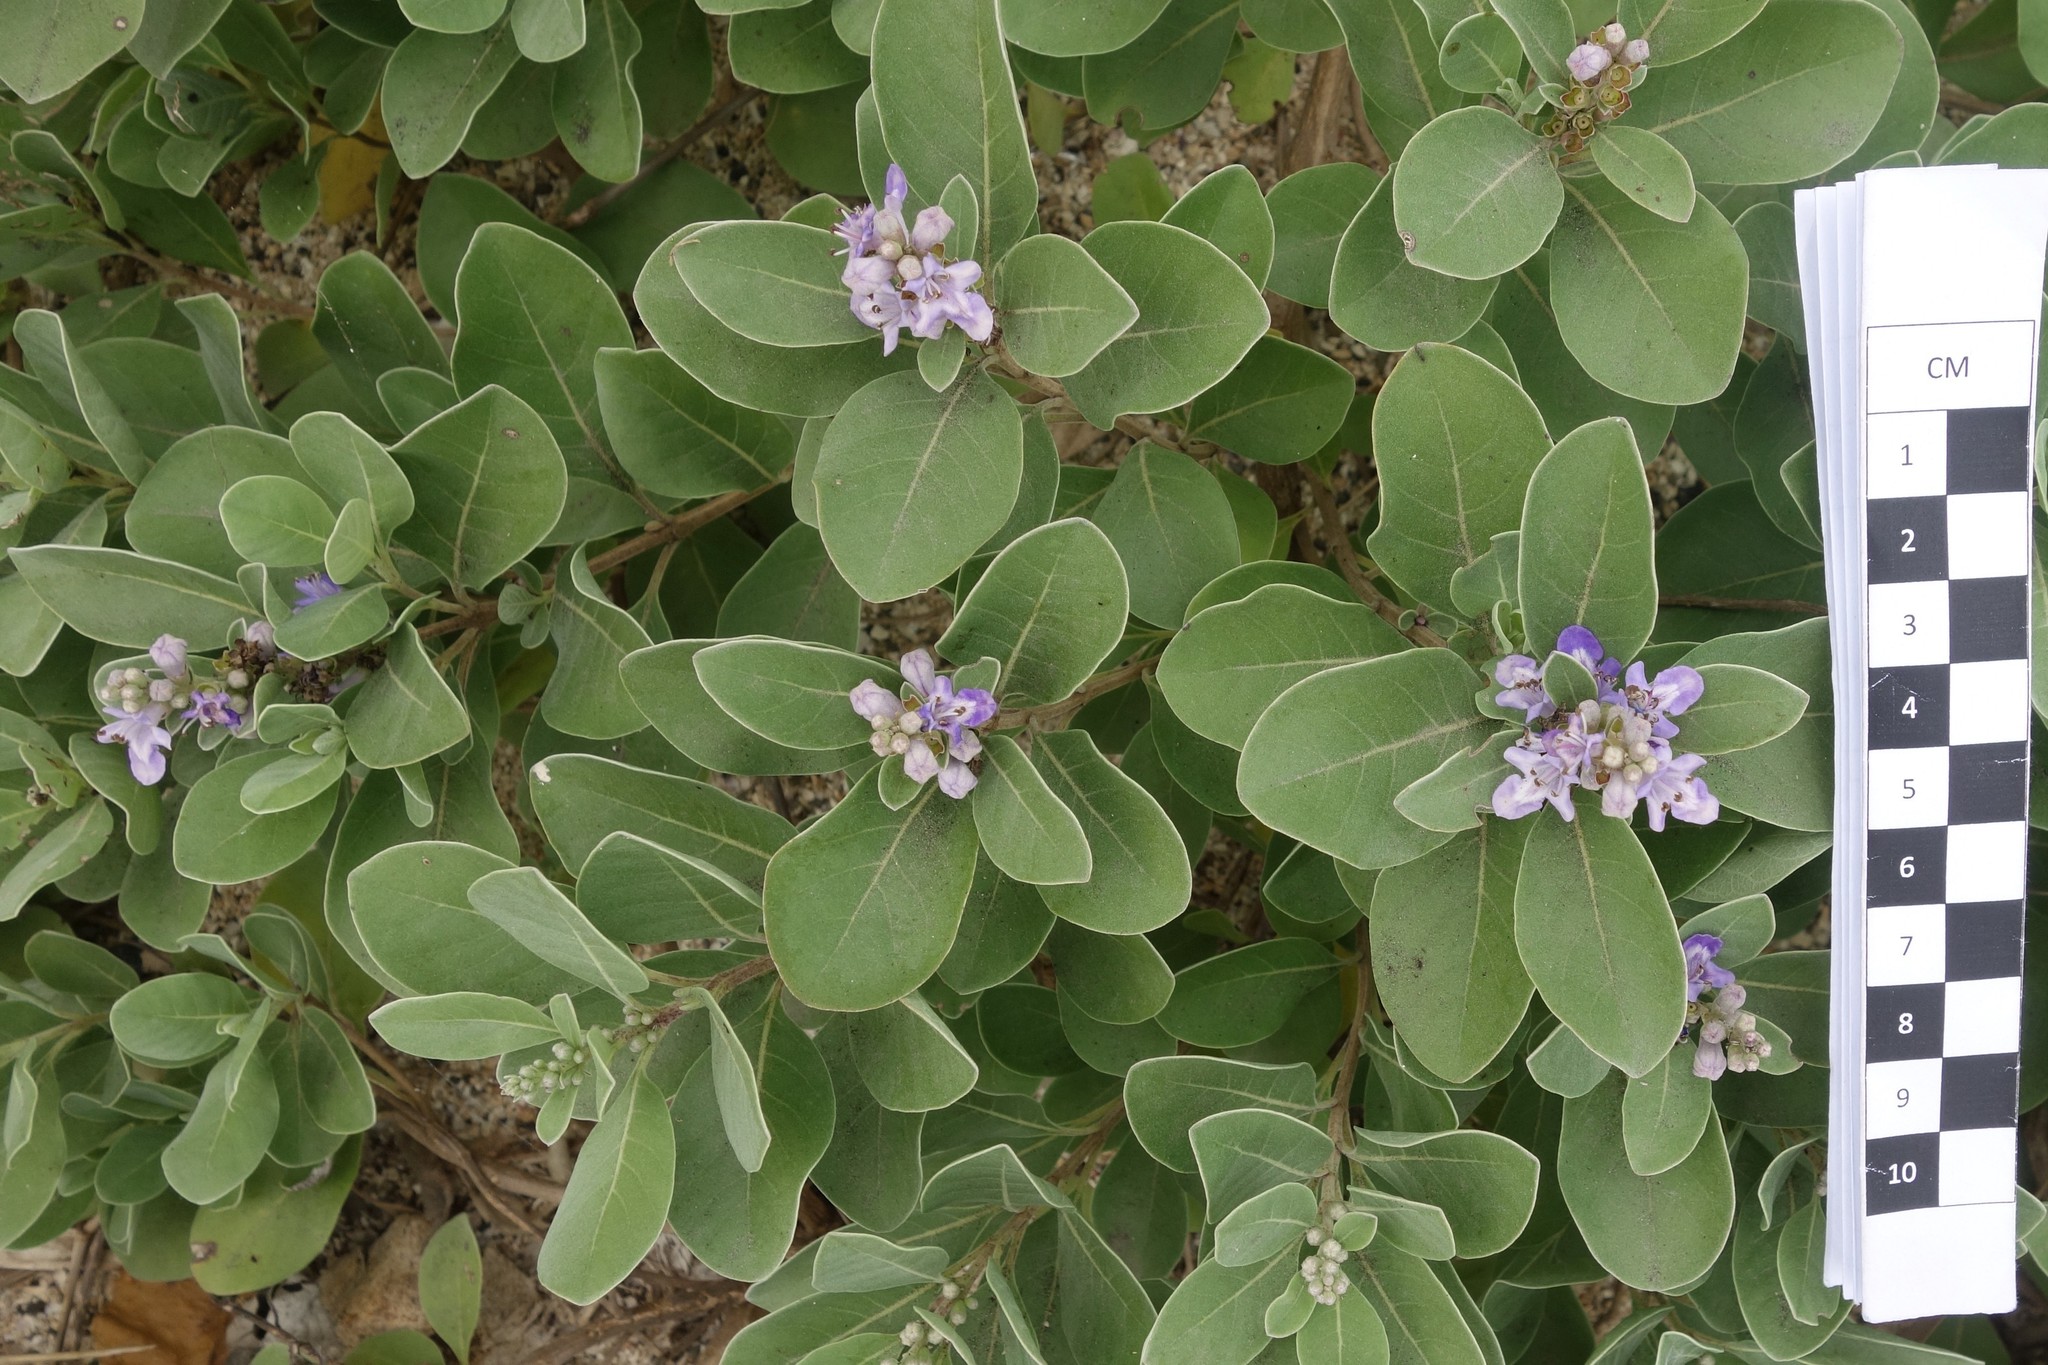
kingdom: Plantae
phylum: Tracheophyta
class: Magnoliopsida
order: Lamiales
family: Lamiaceae
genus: Vitex
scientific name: Vitex rotundifolia
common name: Beach vitex
